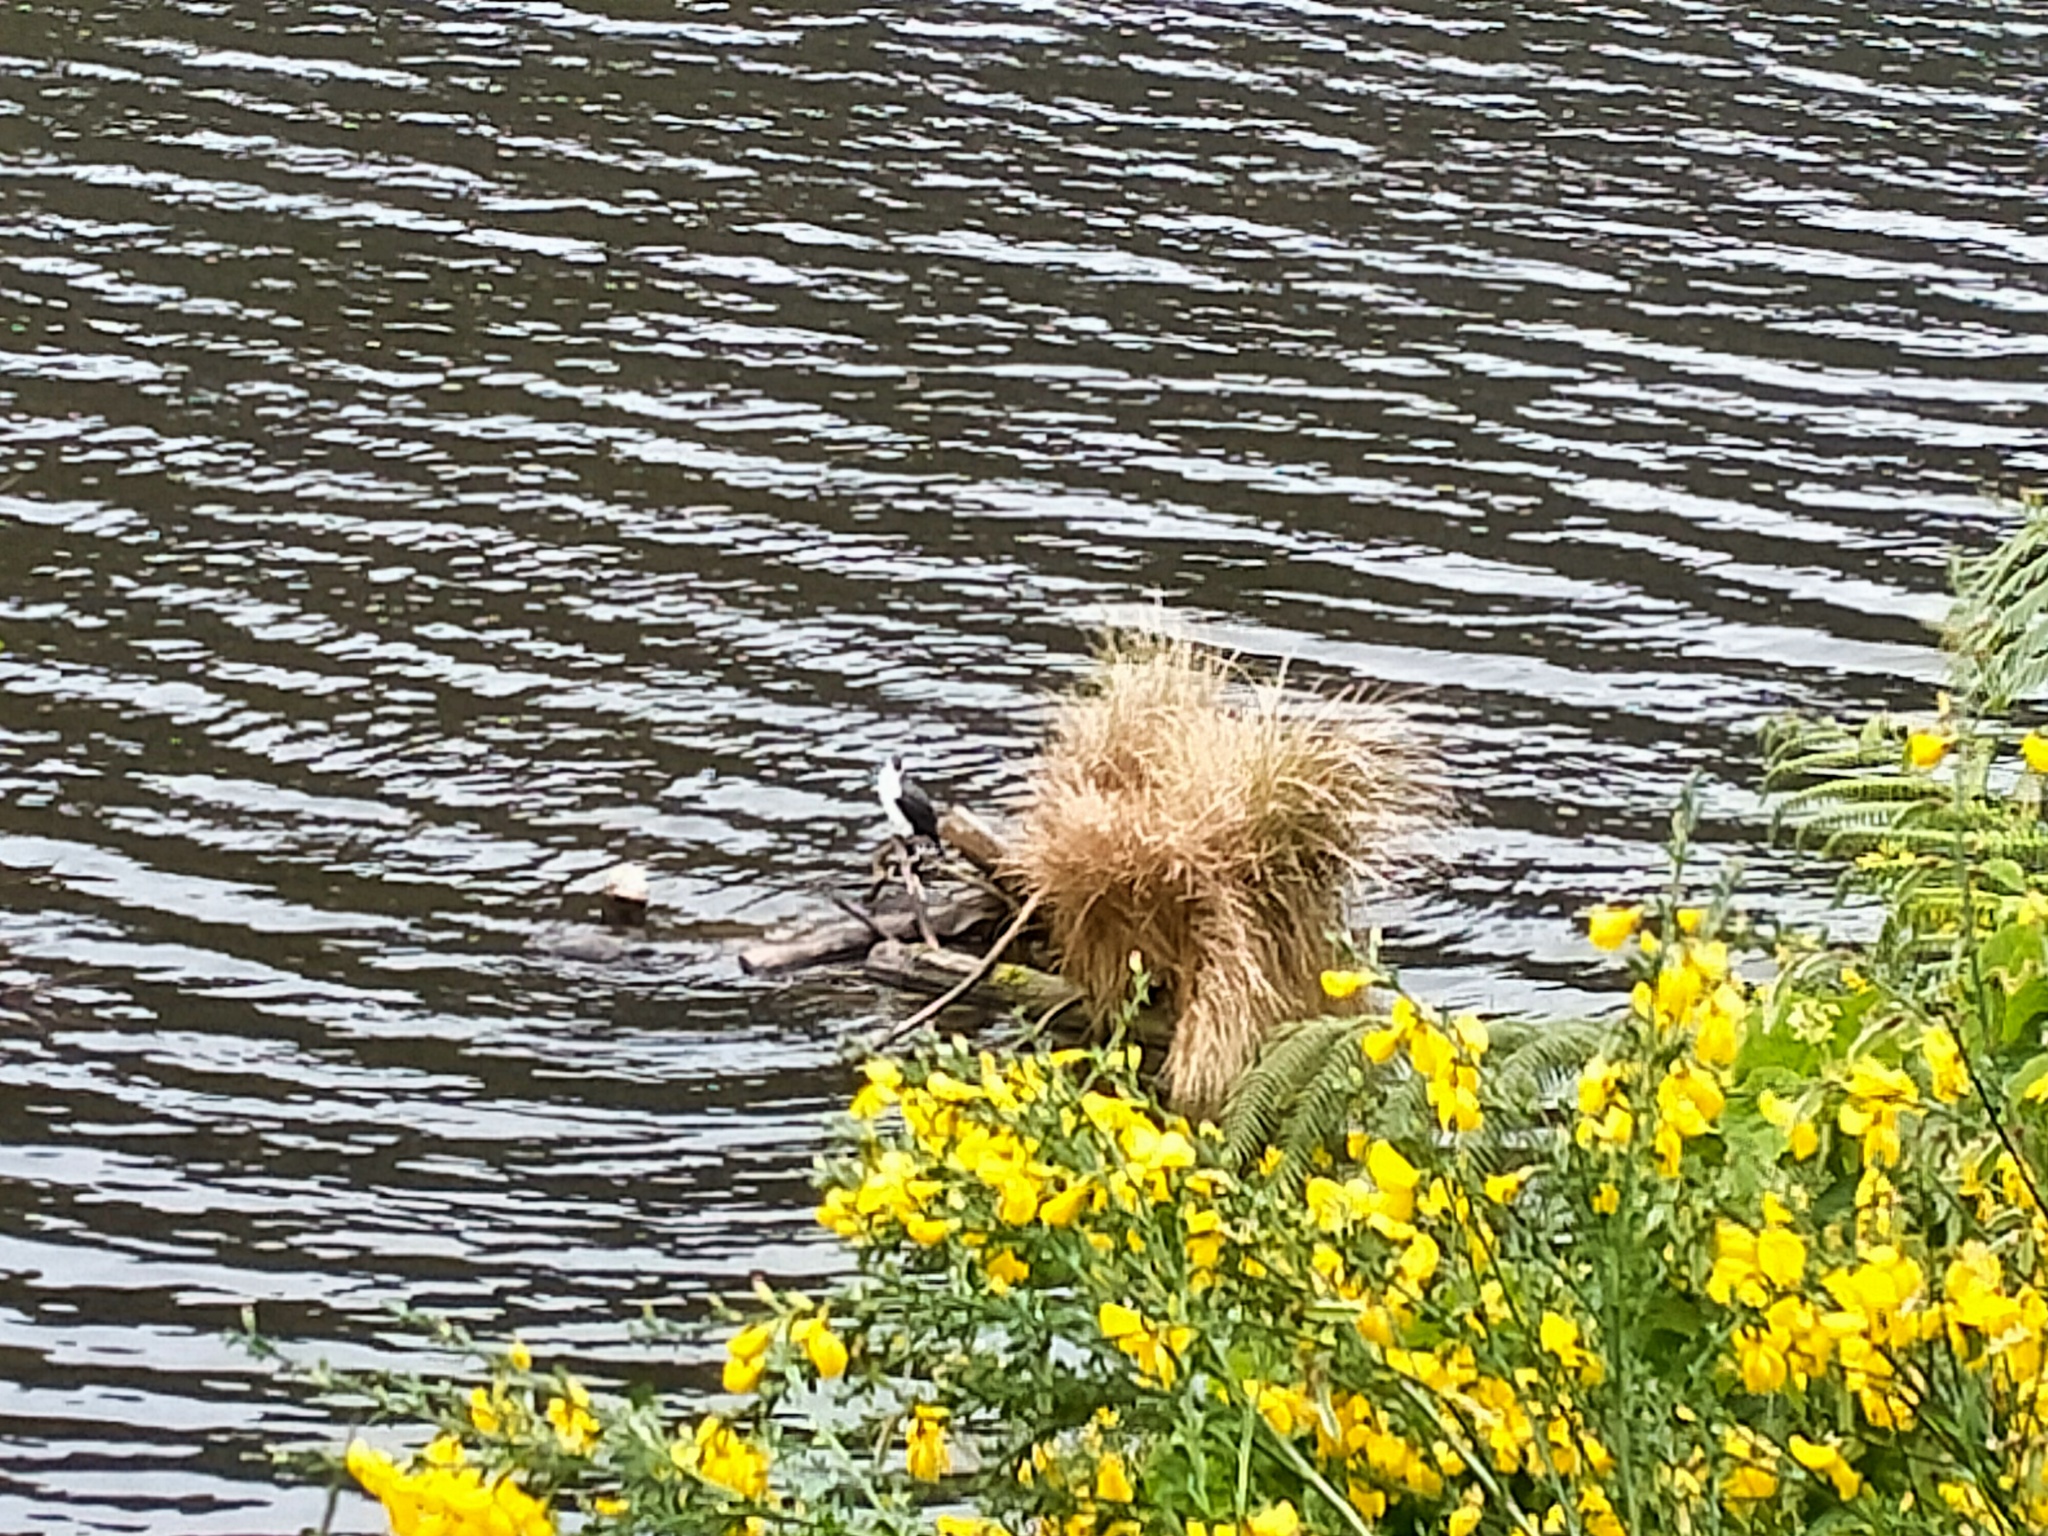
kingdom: Animalia
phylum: Chordata
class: Aves
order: Suliformes
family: Phalacrocoracidae
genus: Phalacrocorax
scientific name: Phalacrocorax varius
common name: Pied cormorant
